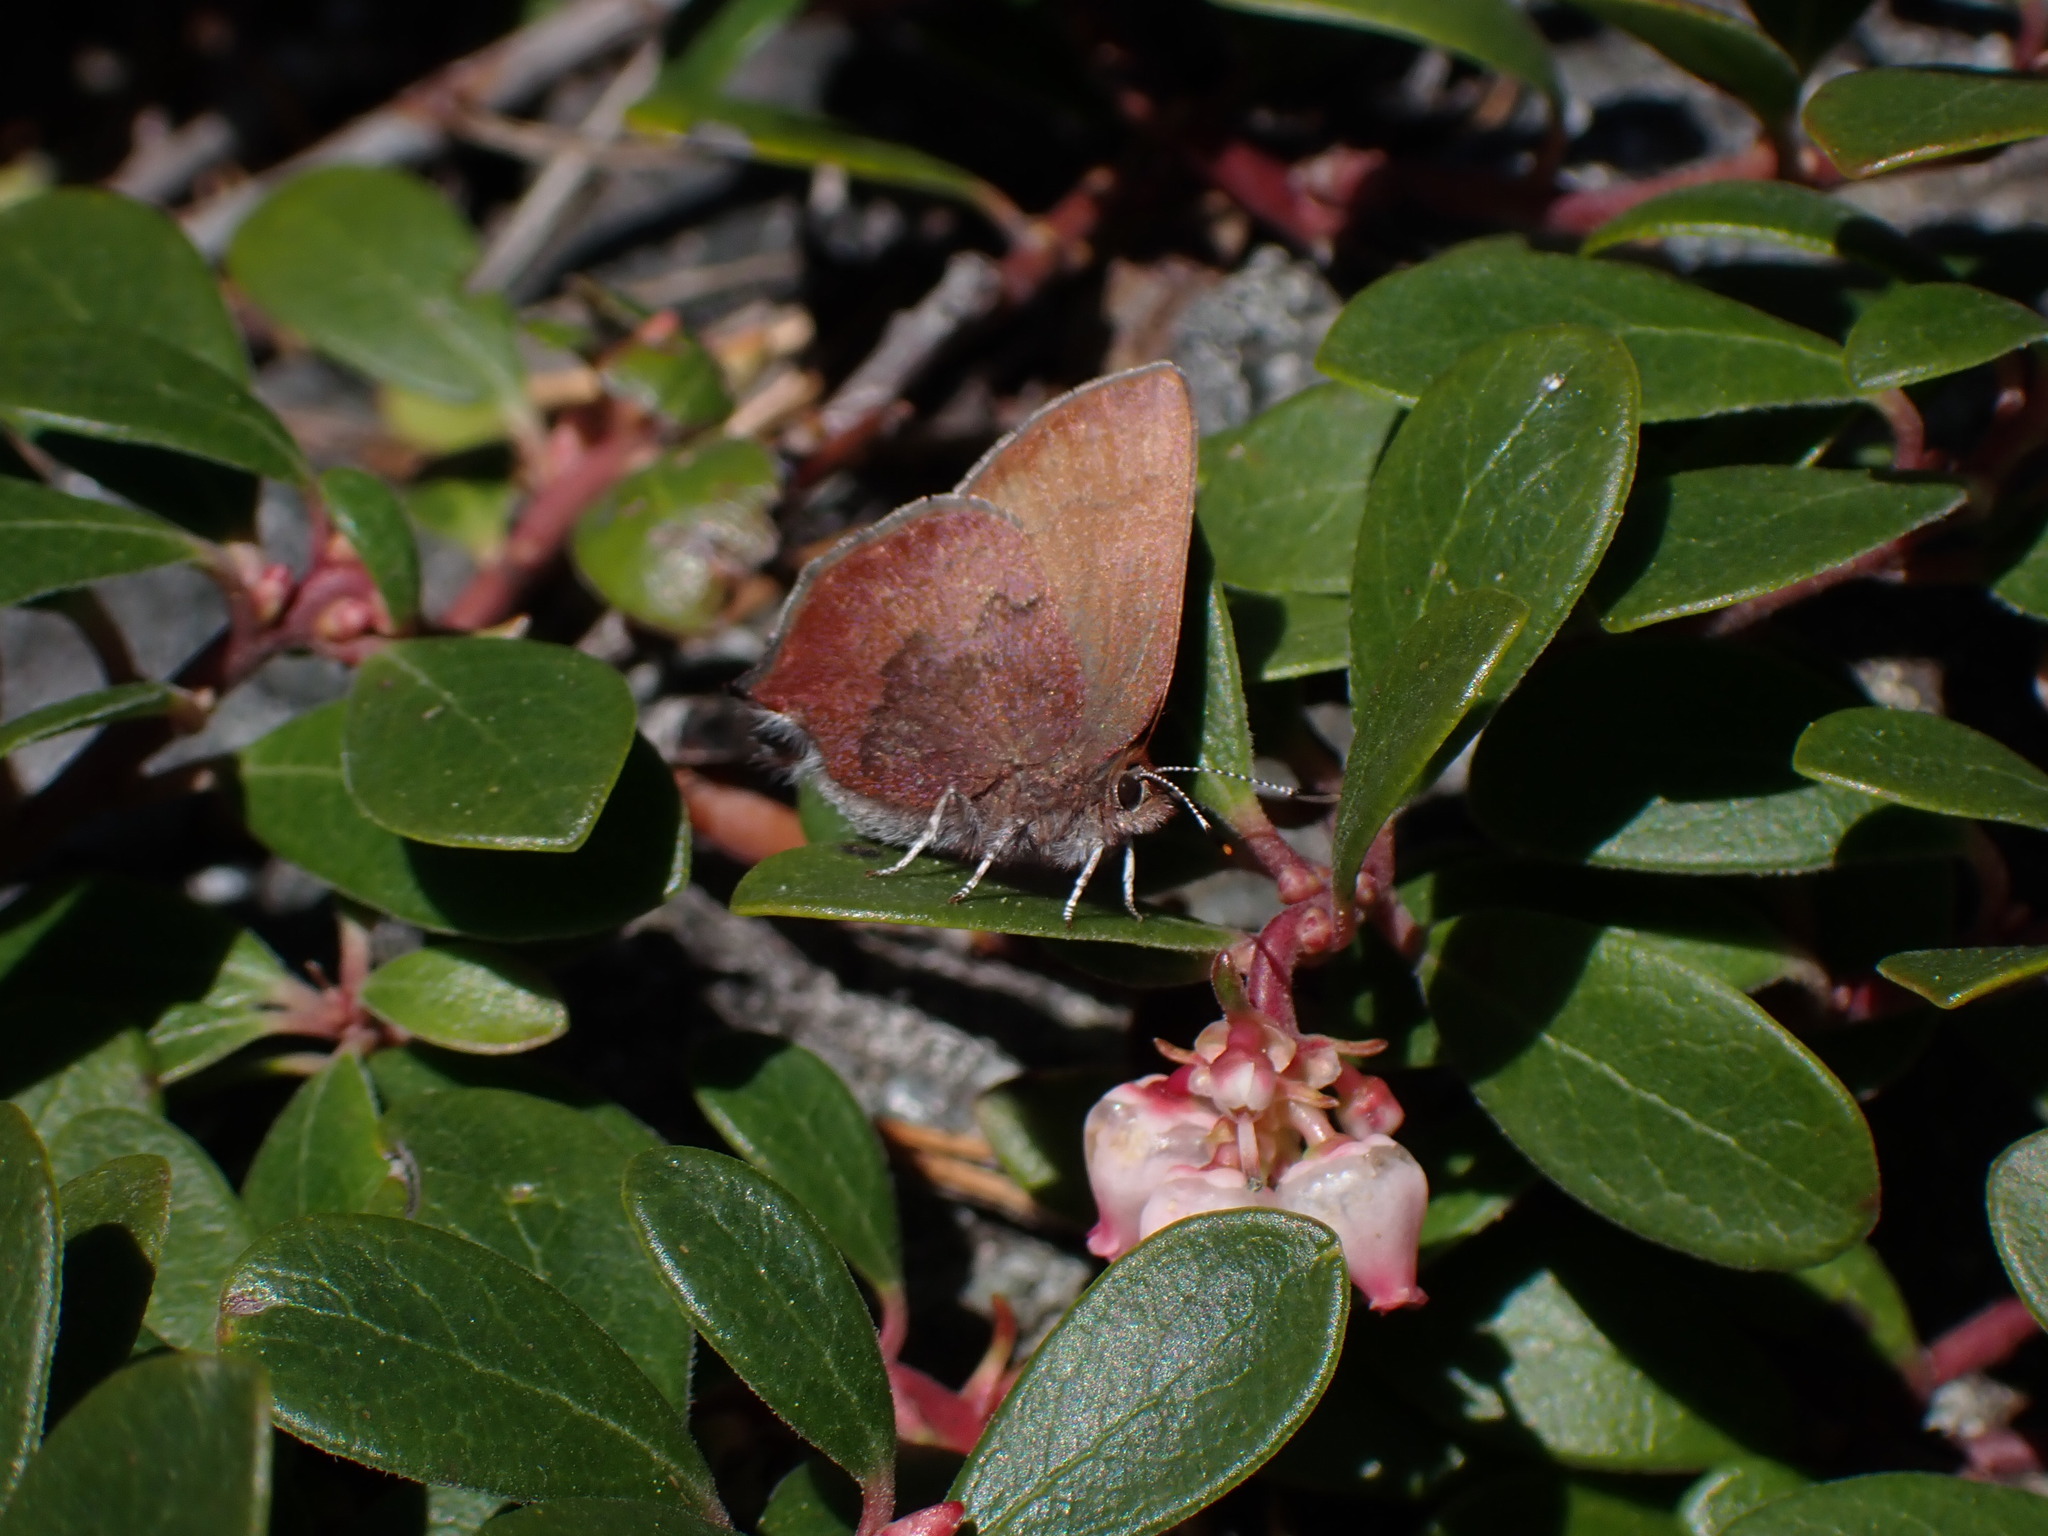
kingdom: Animalia
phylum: Arthropoda
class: Insecta
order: Lepidoptera
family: Lycaenidae
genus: Incisalia
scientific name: Incisalia irioides
